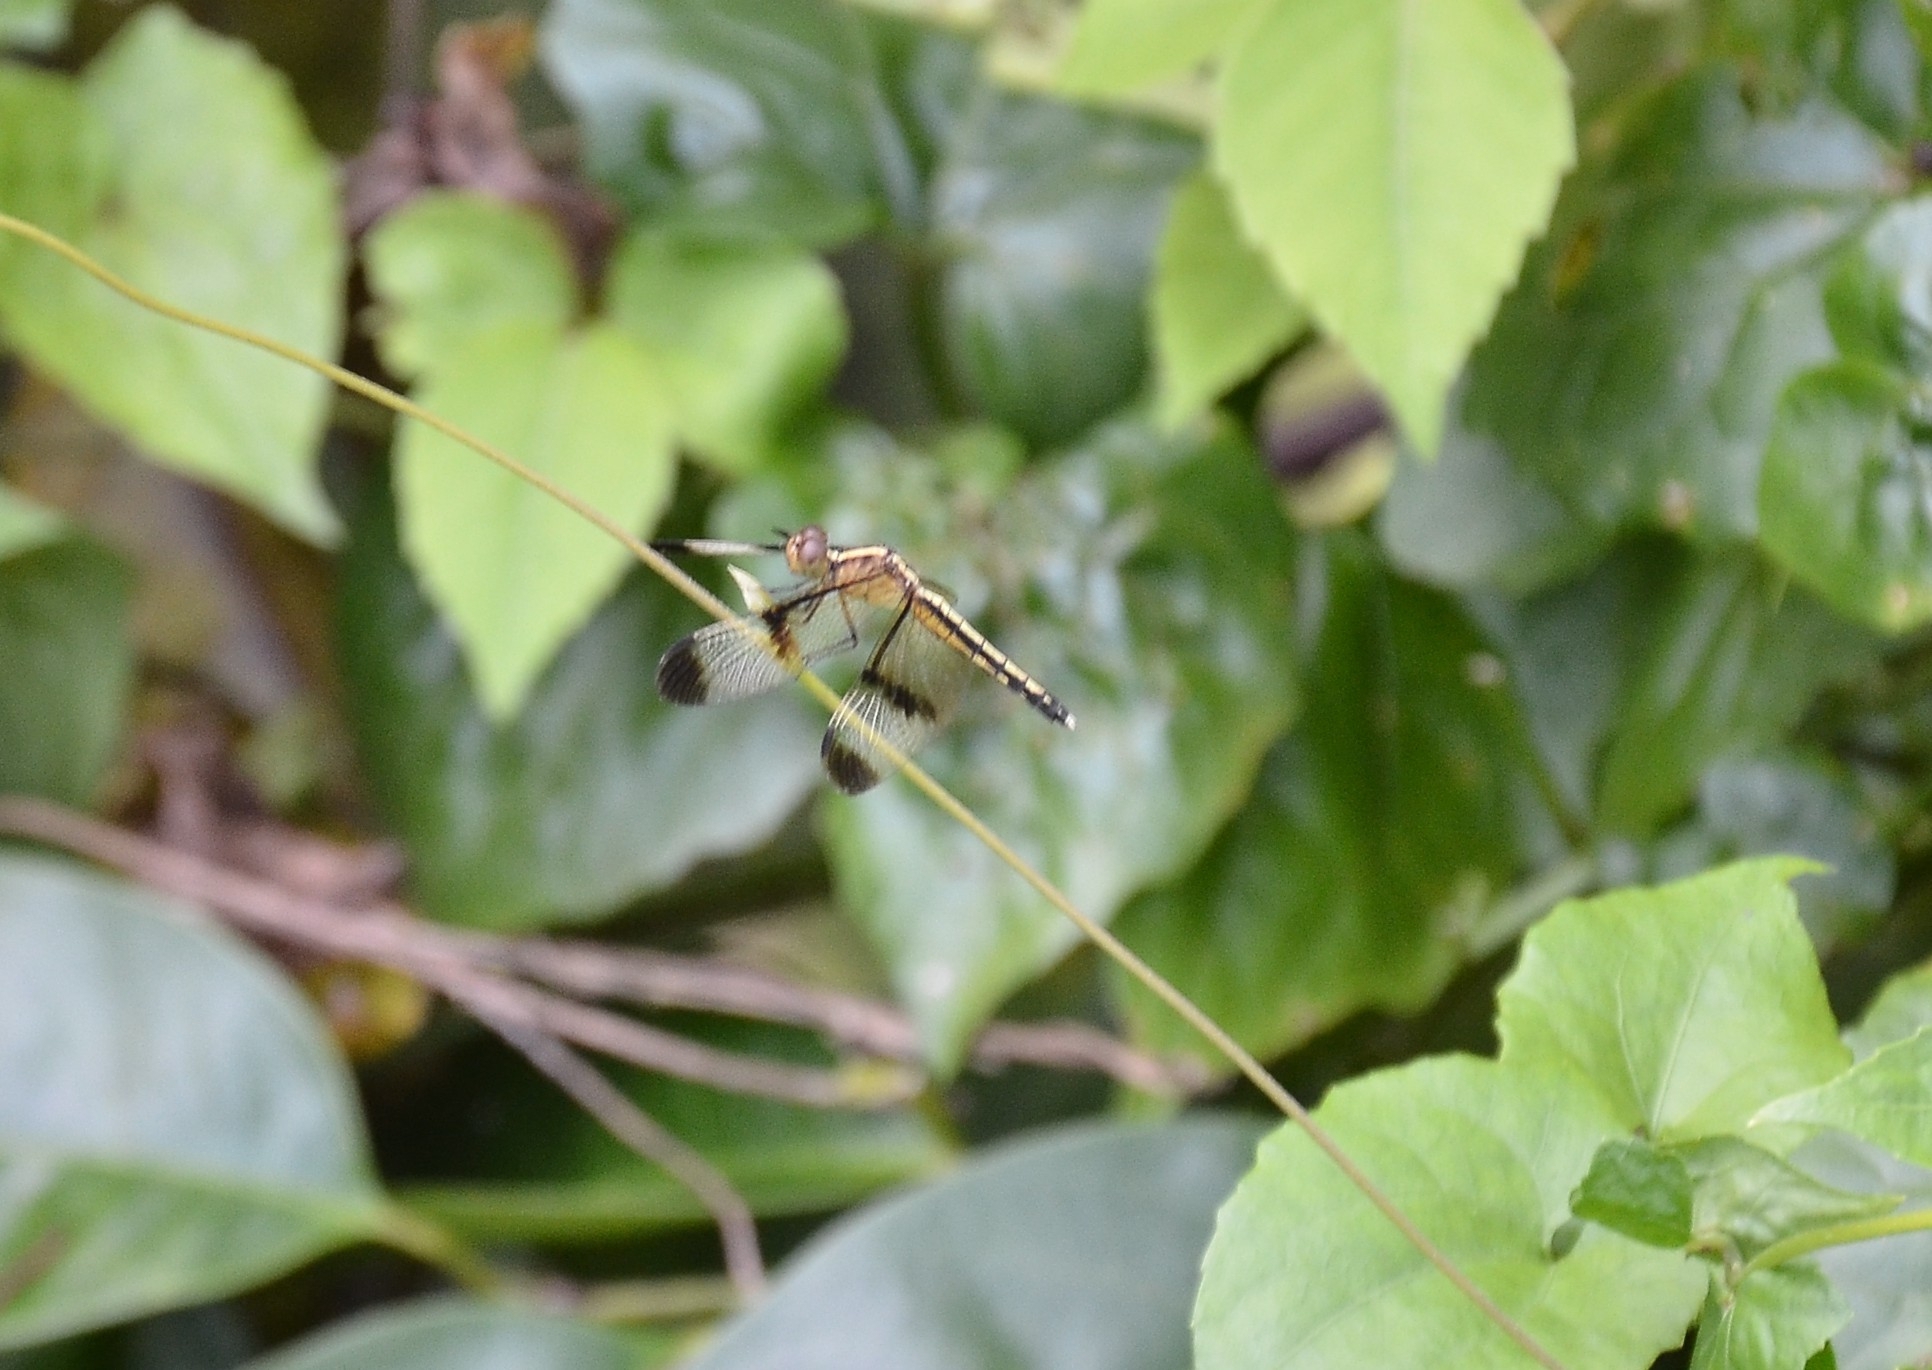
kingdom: Animalia
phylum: Arthropoda
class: Insecta
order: Odonata
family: Libellulidae
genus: Neurothemis
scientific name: Neurothemis tullia
